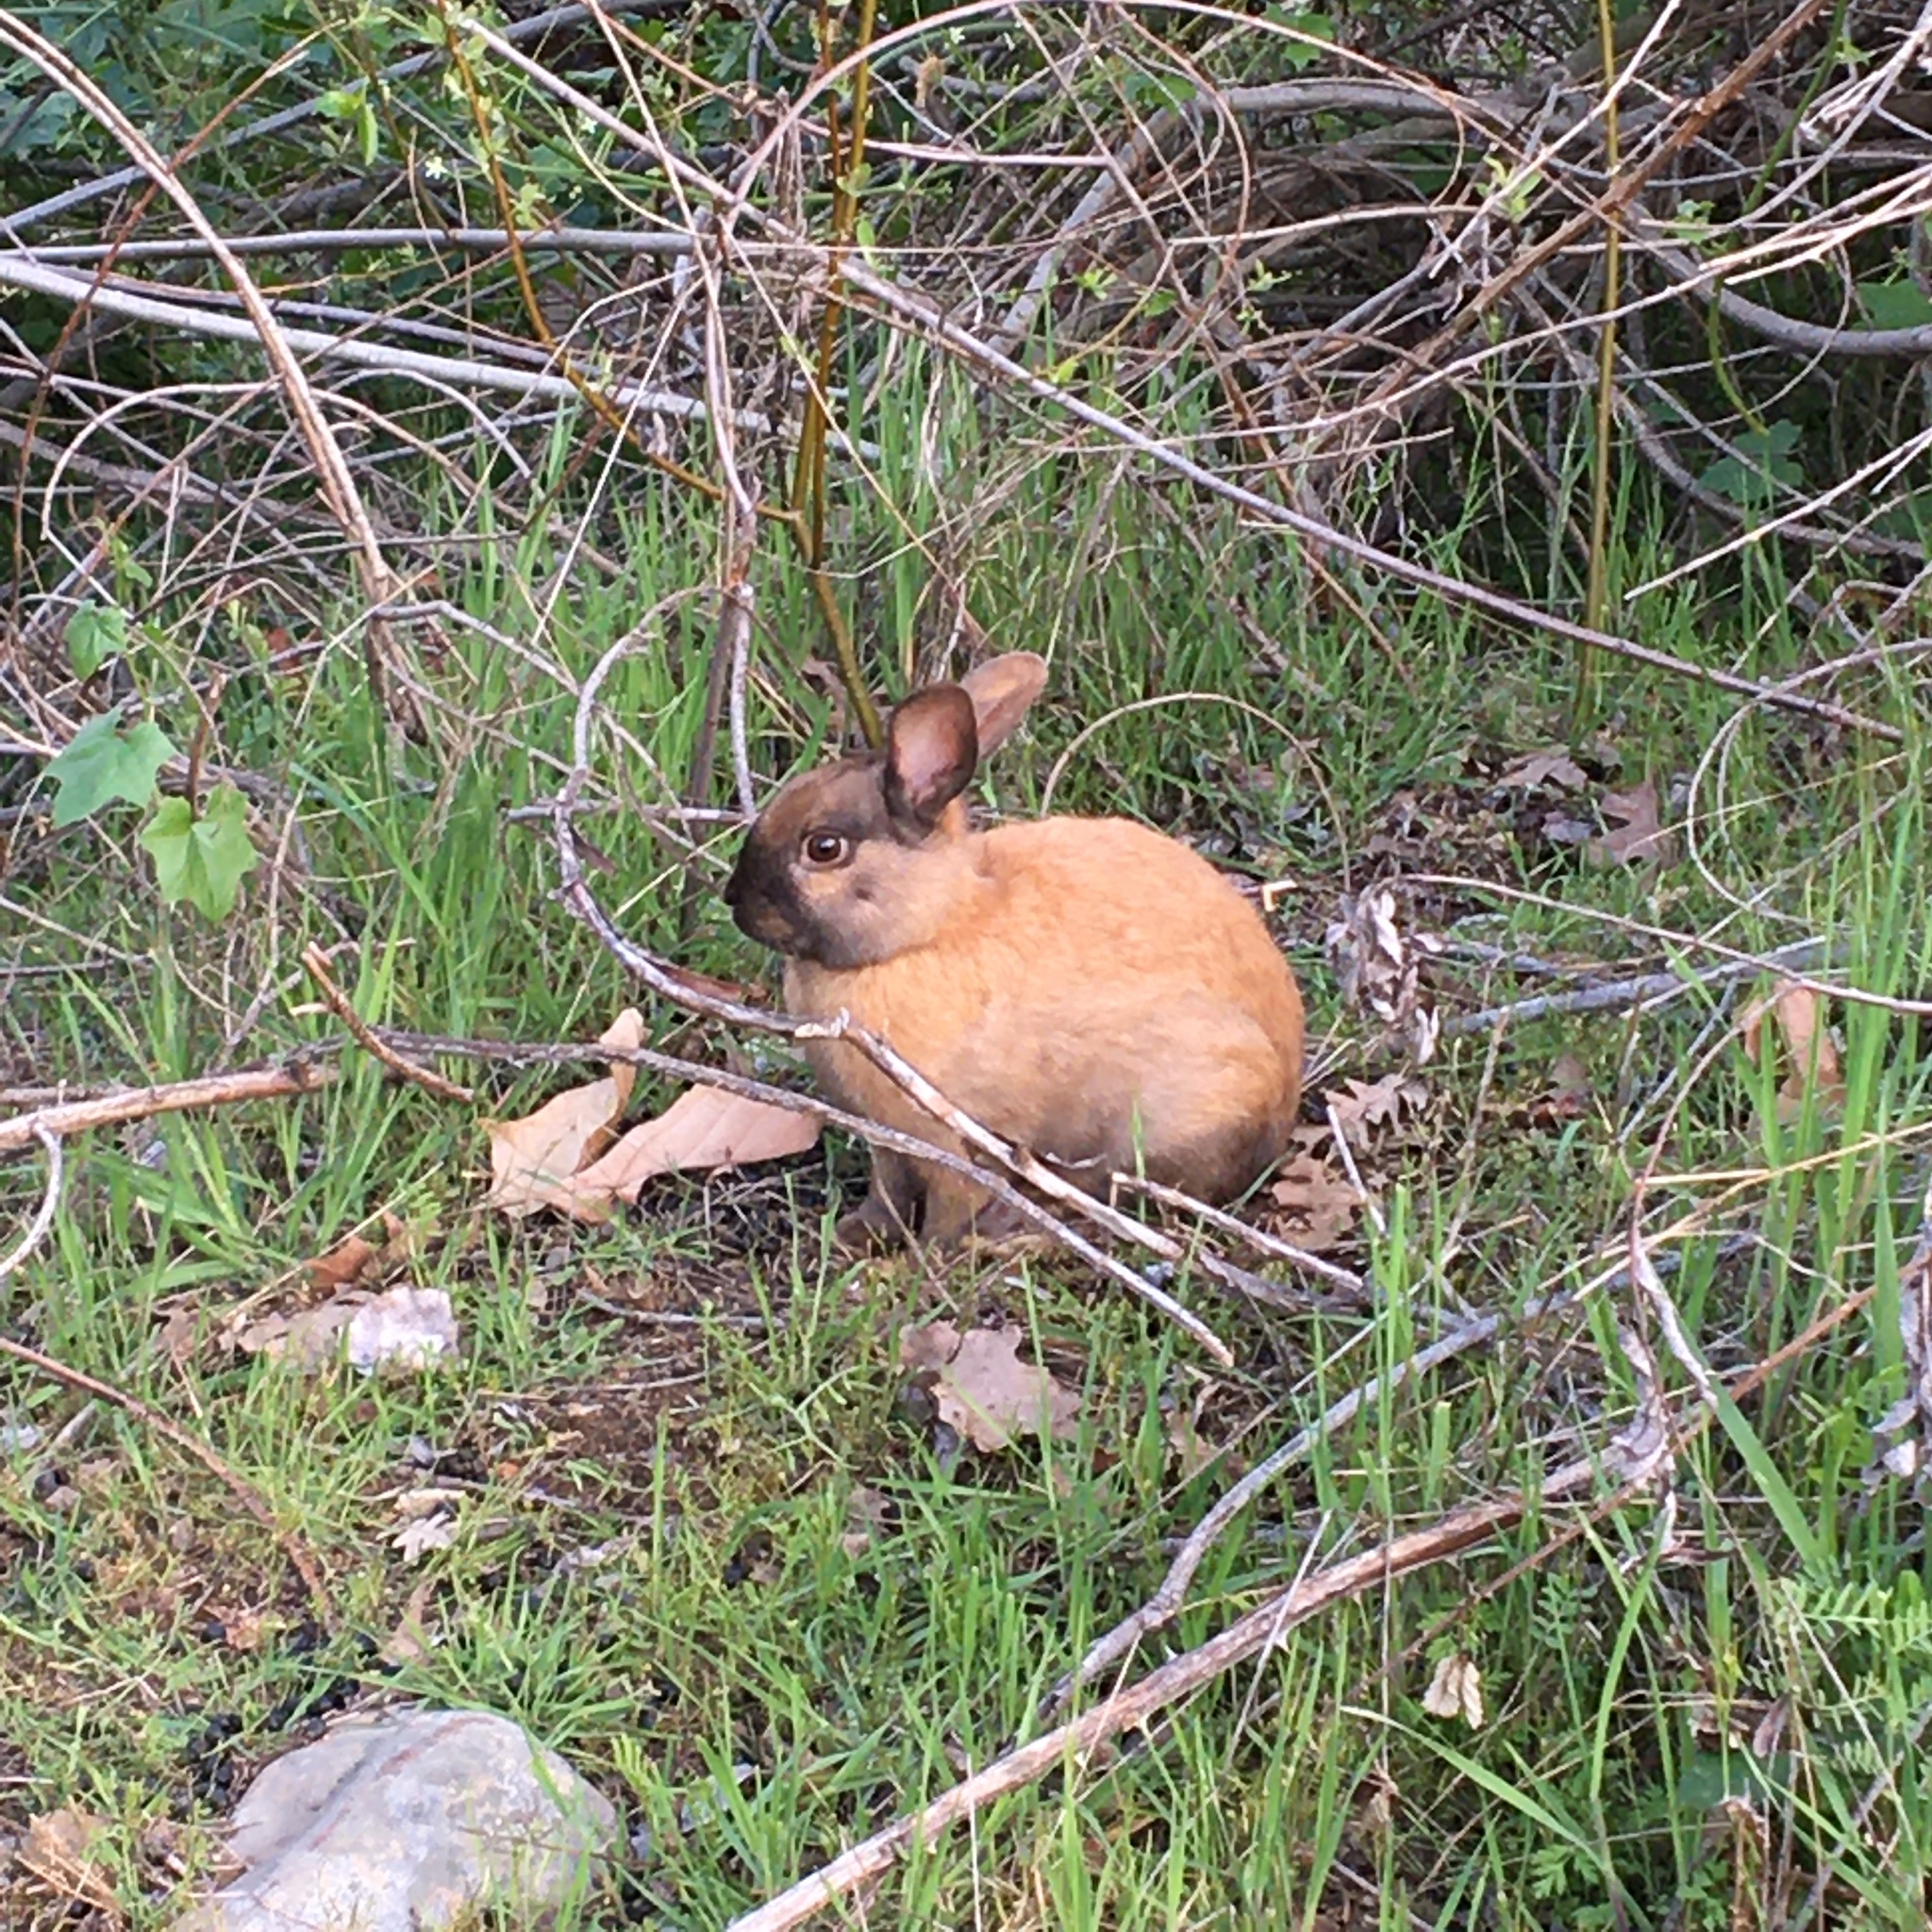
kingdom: Animalia
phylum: Chordata
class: Mammalia
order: Lagomorpha
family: Leporidae
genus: Oryctolagus
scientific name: Oryctolagus cuniculus
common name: European rabbit
